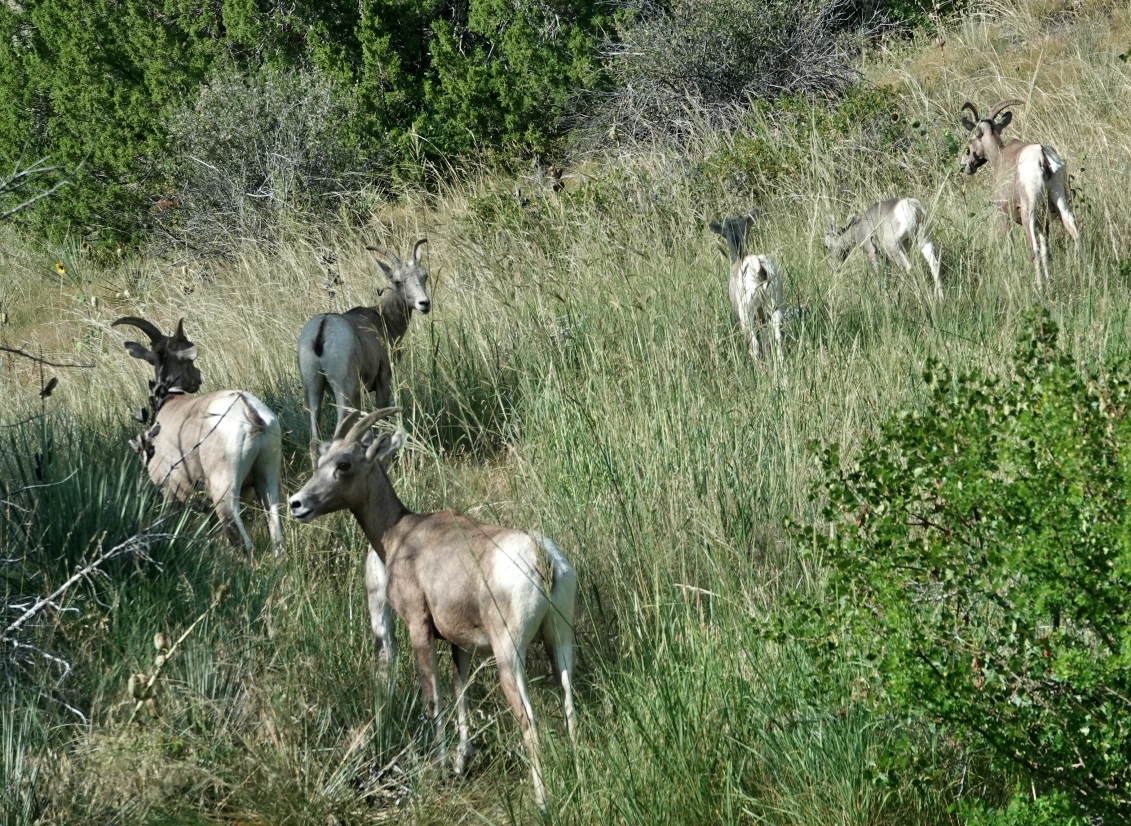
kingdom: Animalia
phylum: Chordata
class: Mammalia
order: Artiodactyla
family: Bovidae
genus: Ovis
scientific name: Ovis canadensis
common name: Bighorn sheep
